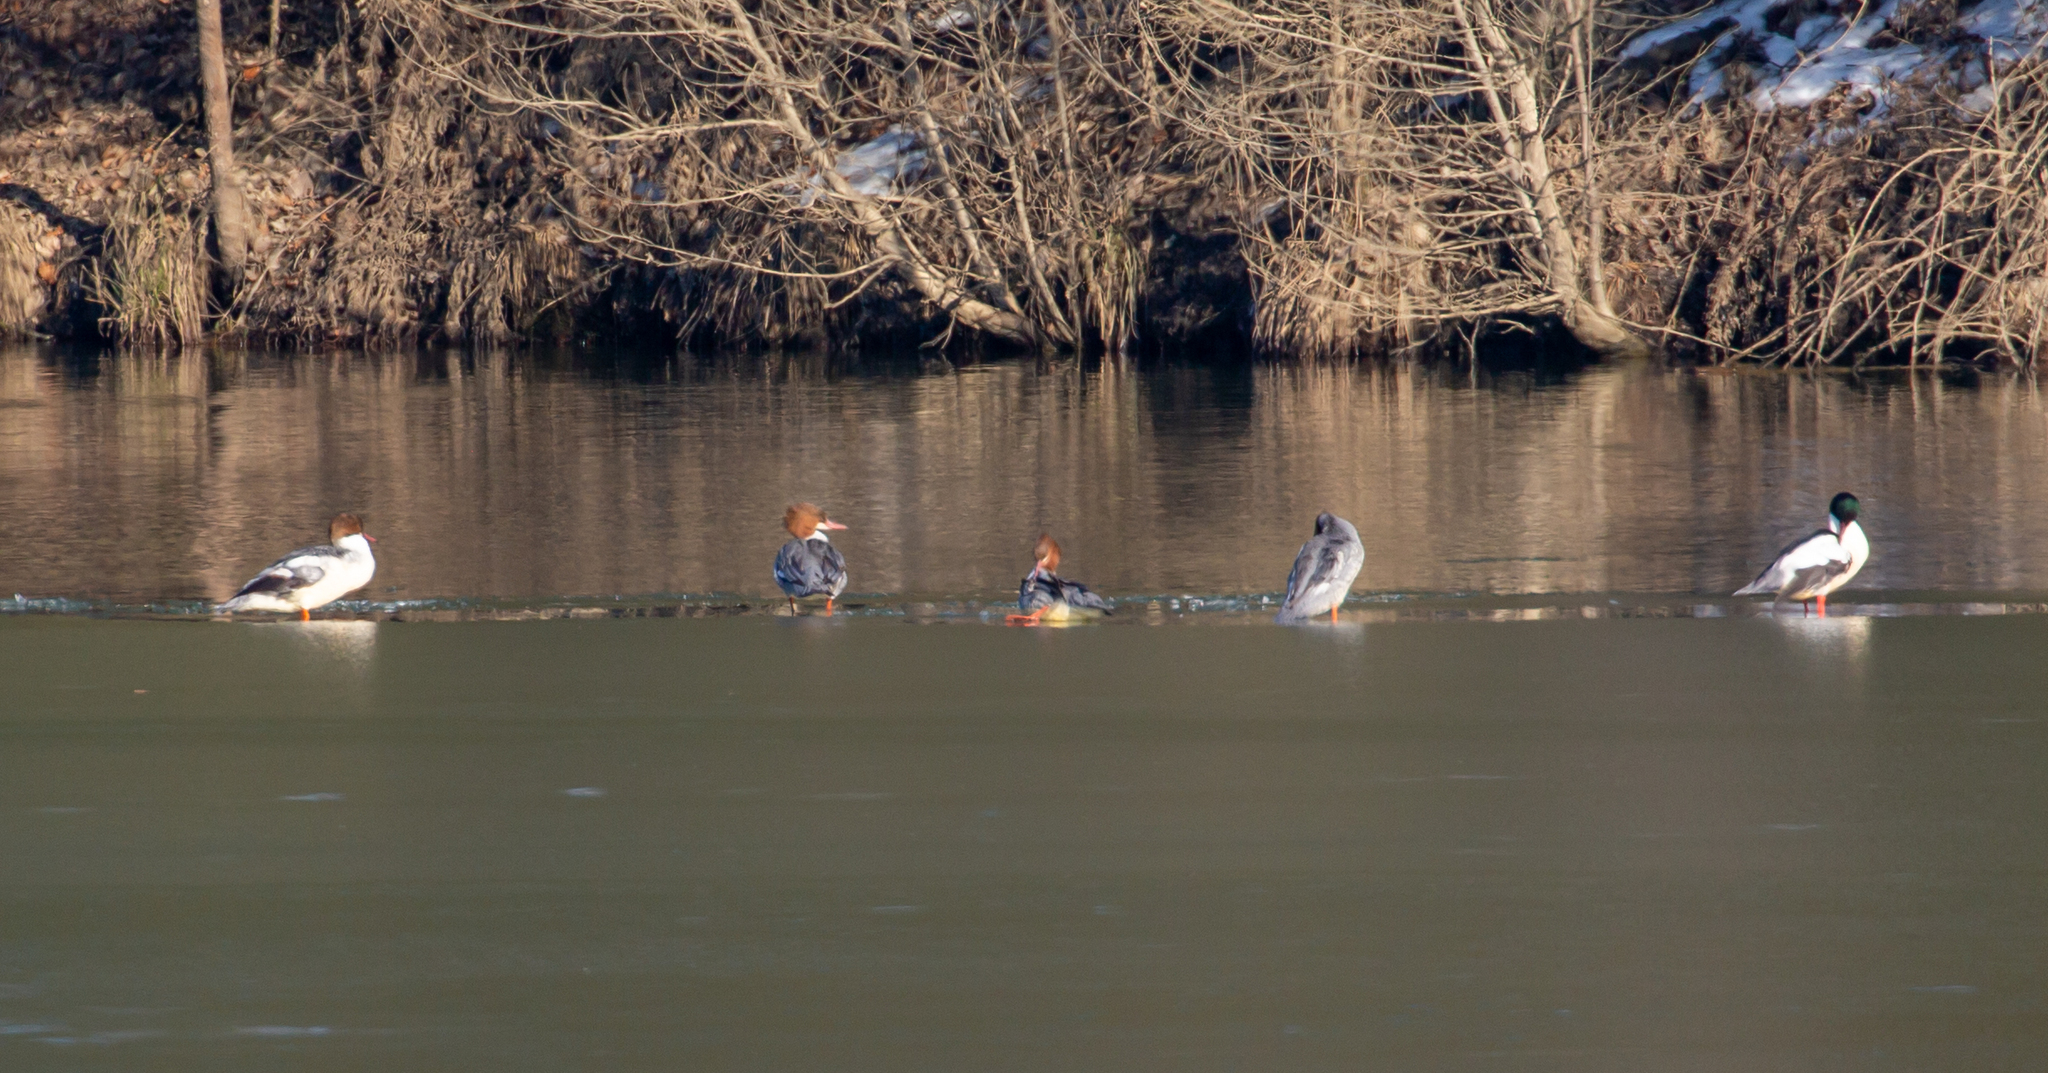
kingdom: Animalia
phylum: Chordata
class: Aves
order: Anseriformes
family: Anatidae
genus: Mergus
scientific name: Mergus merganser
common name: Common merganser
